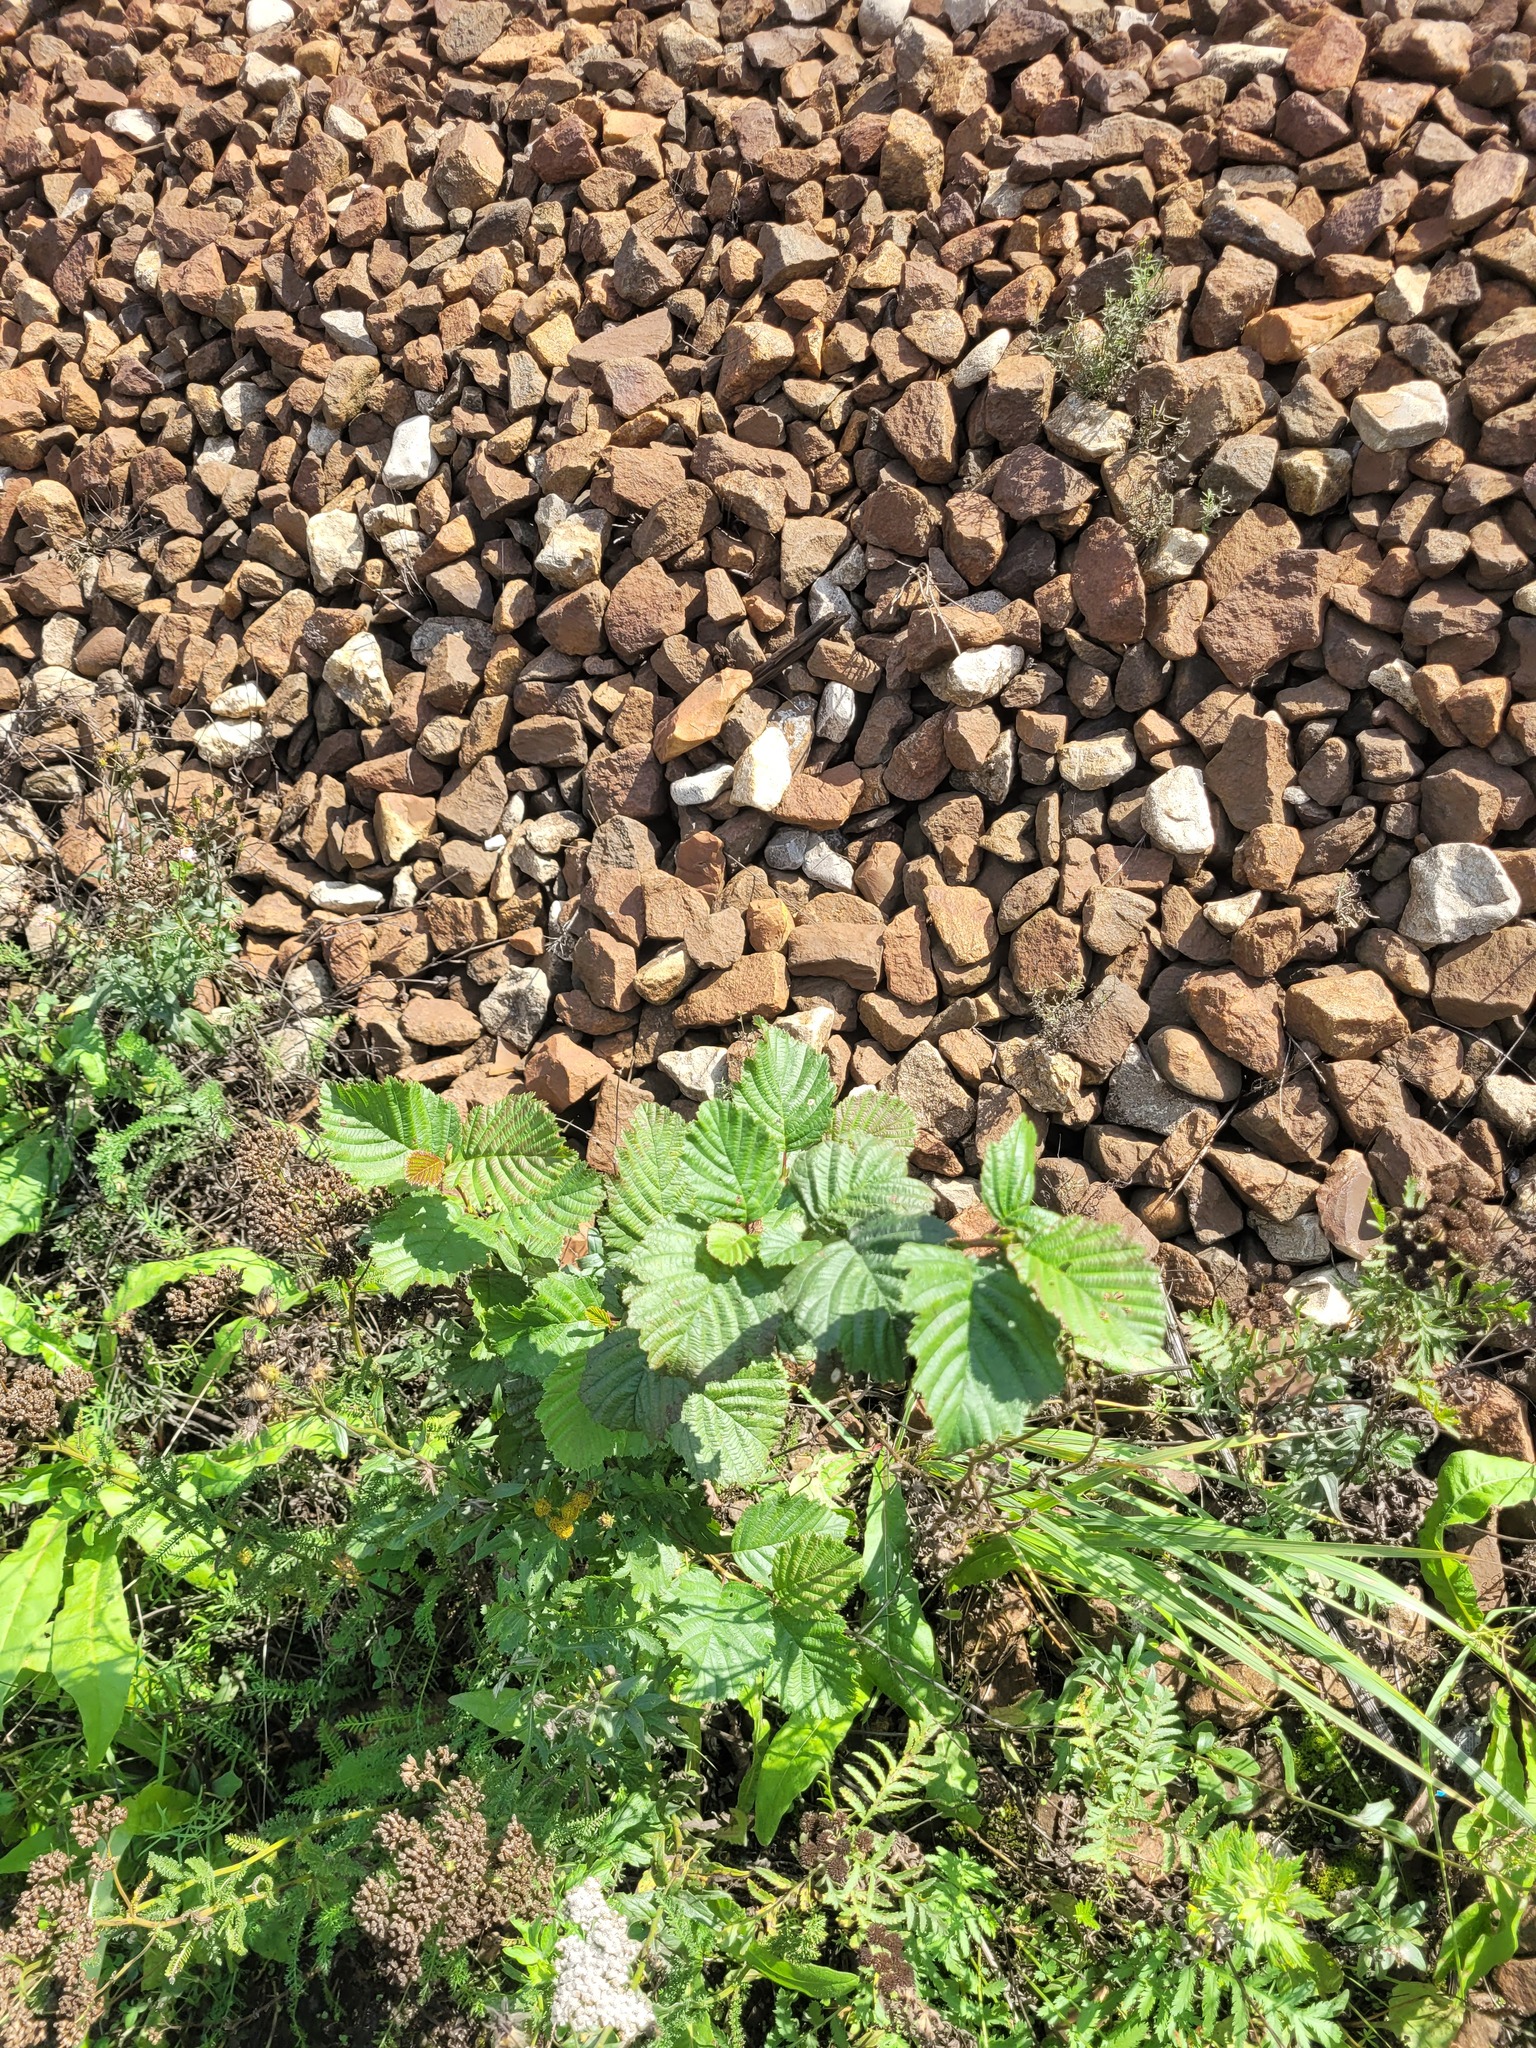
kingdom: Plantae
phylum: Tracheophyta
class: Magnoliopsida
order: Fagales
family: Betulaceae
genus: Alnus
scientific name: Alnus incana
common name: Grey alder
